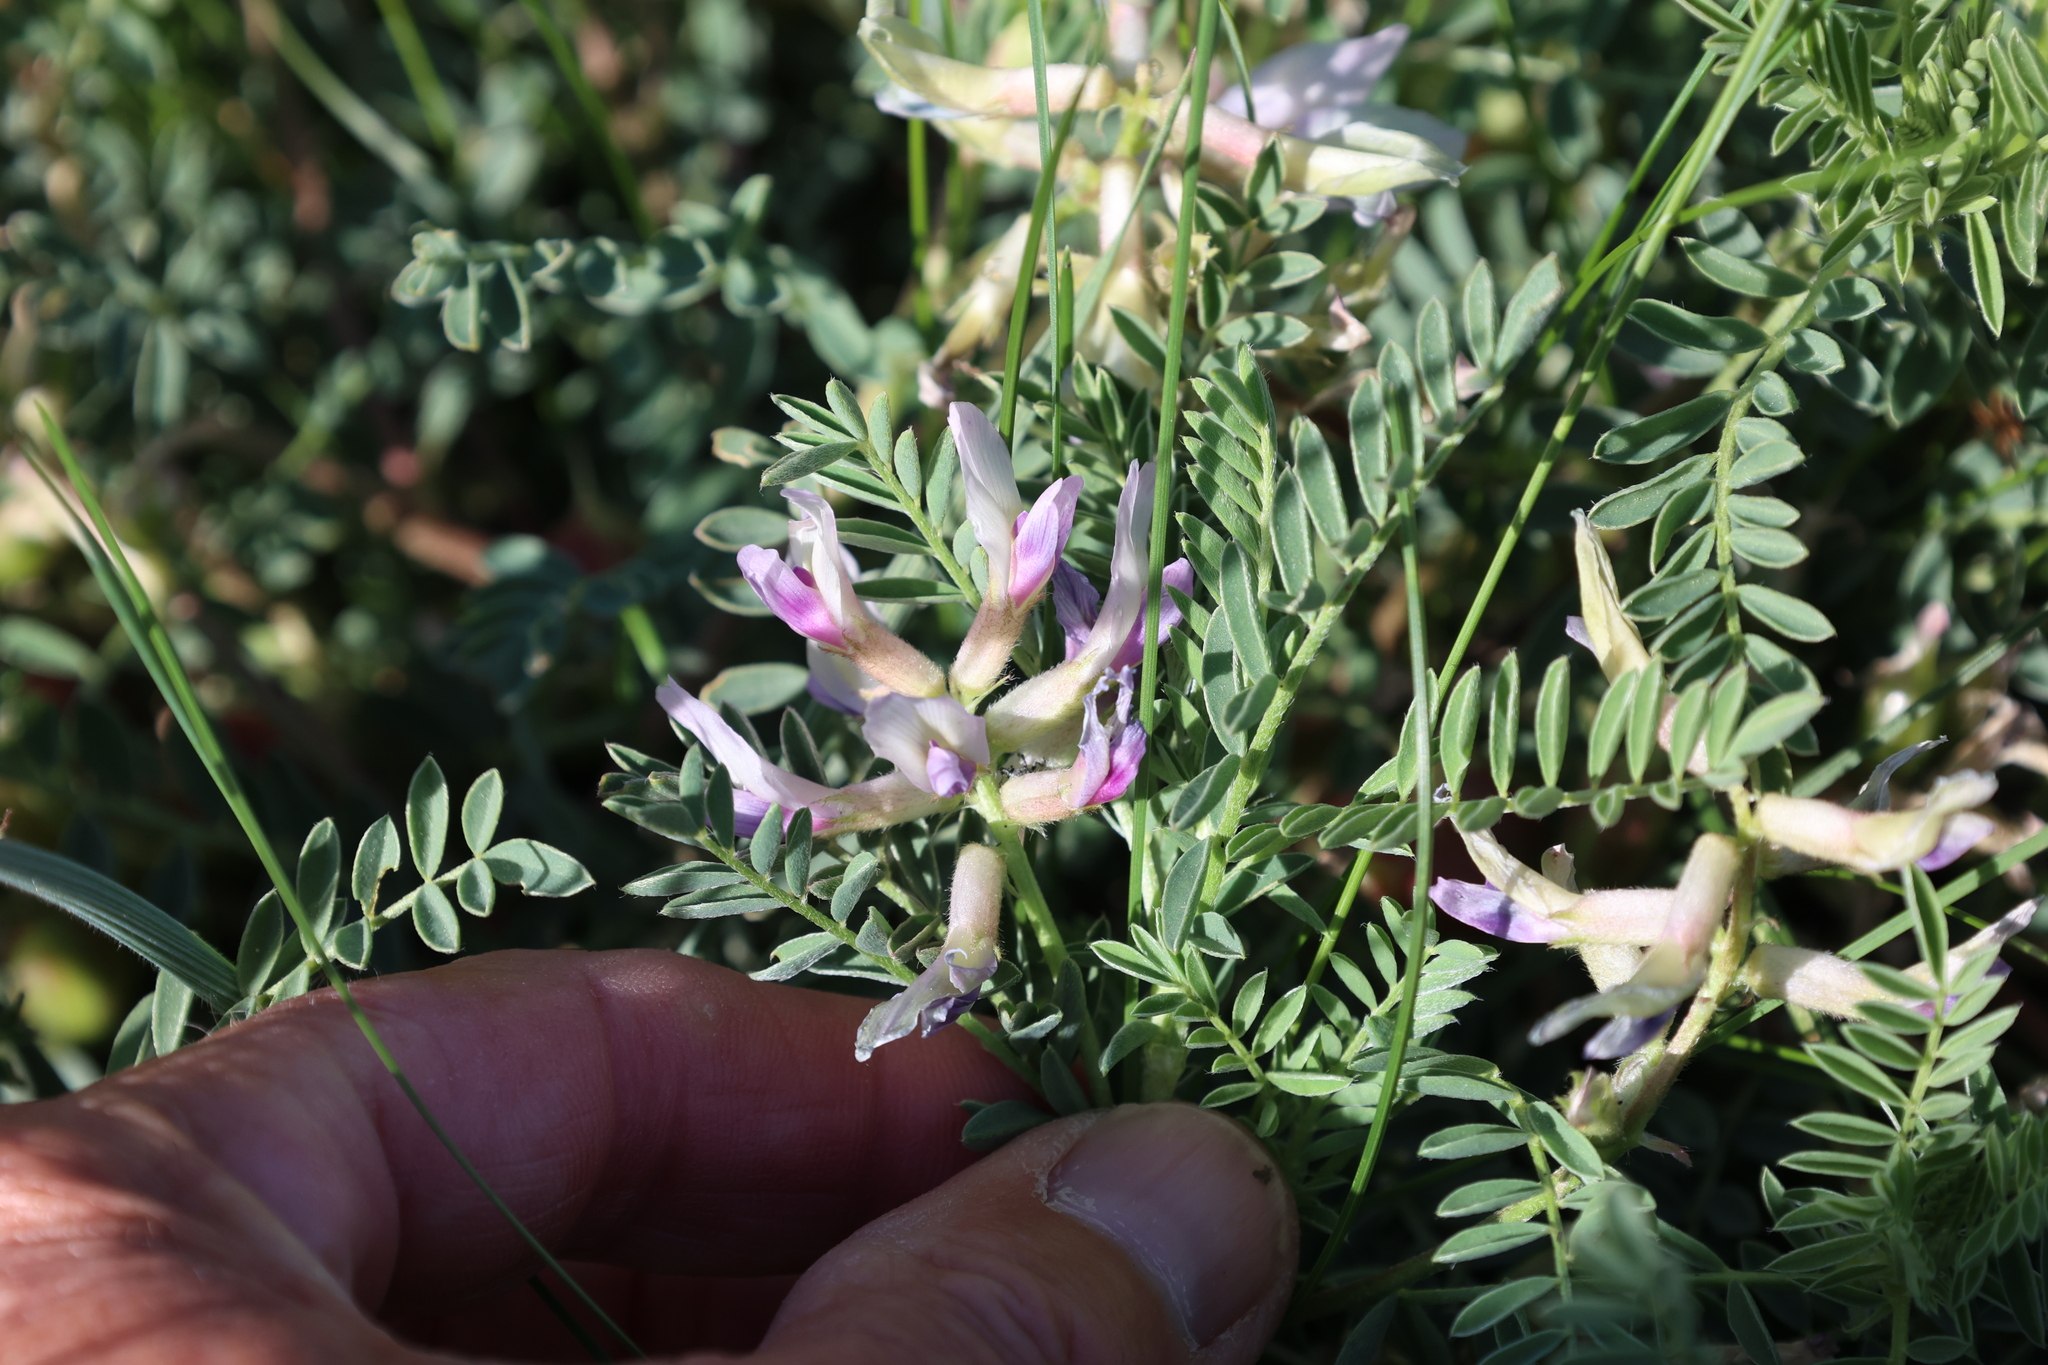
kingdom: Plantae
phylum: Tracheophyta
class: Magnoliopsida
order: Fabales
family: Fabaceae
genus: Astragalus
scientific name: Astragalus crassicarpus
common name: Ground-plum milk-vetch
